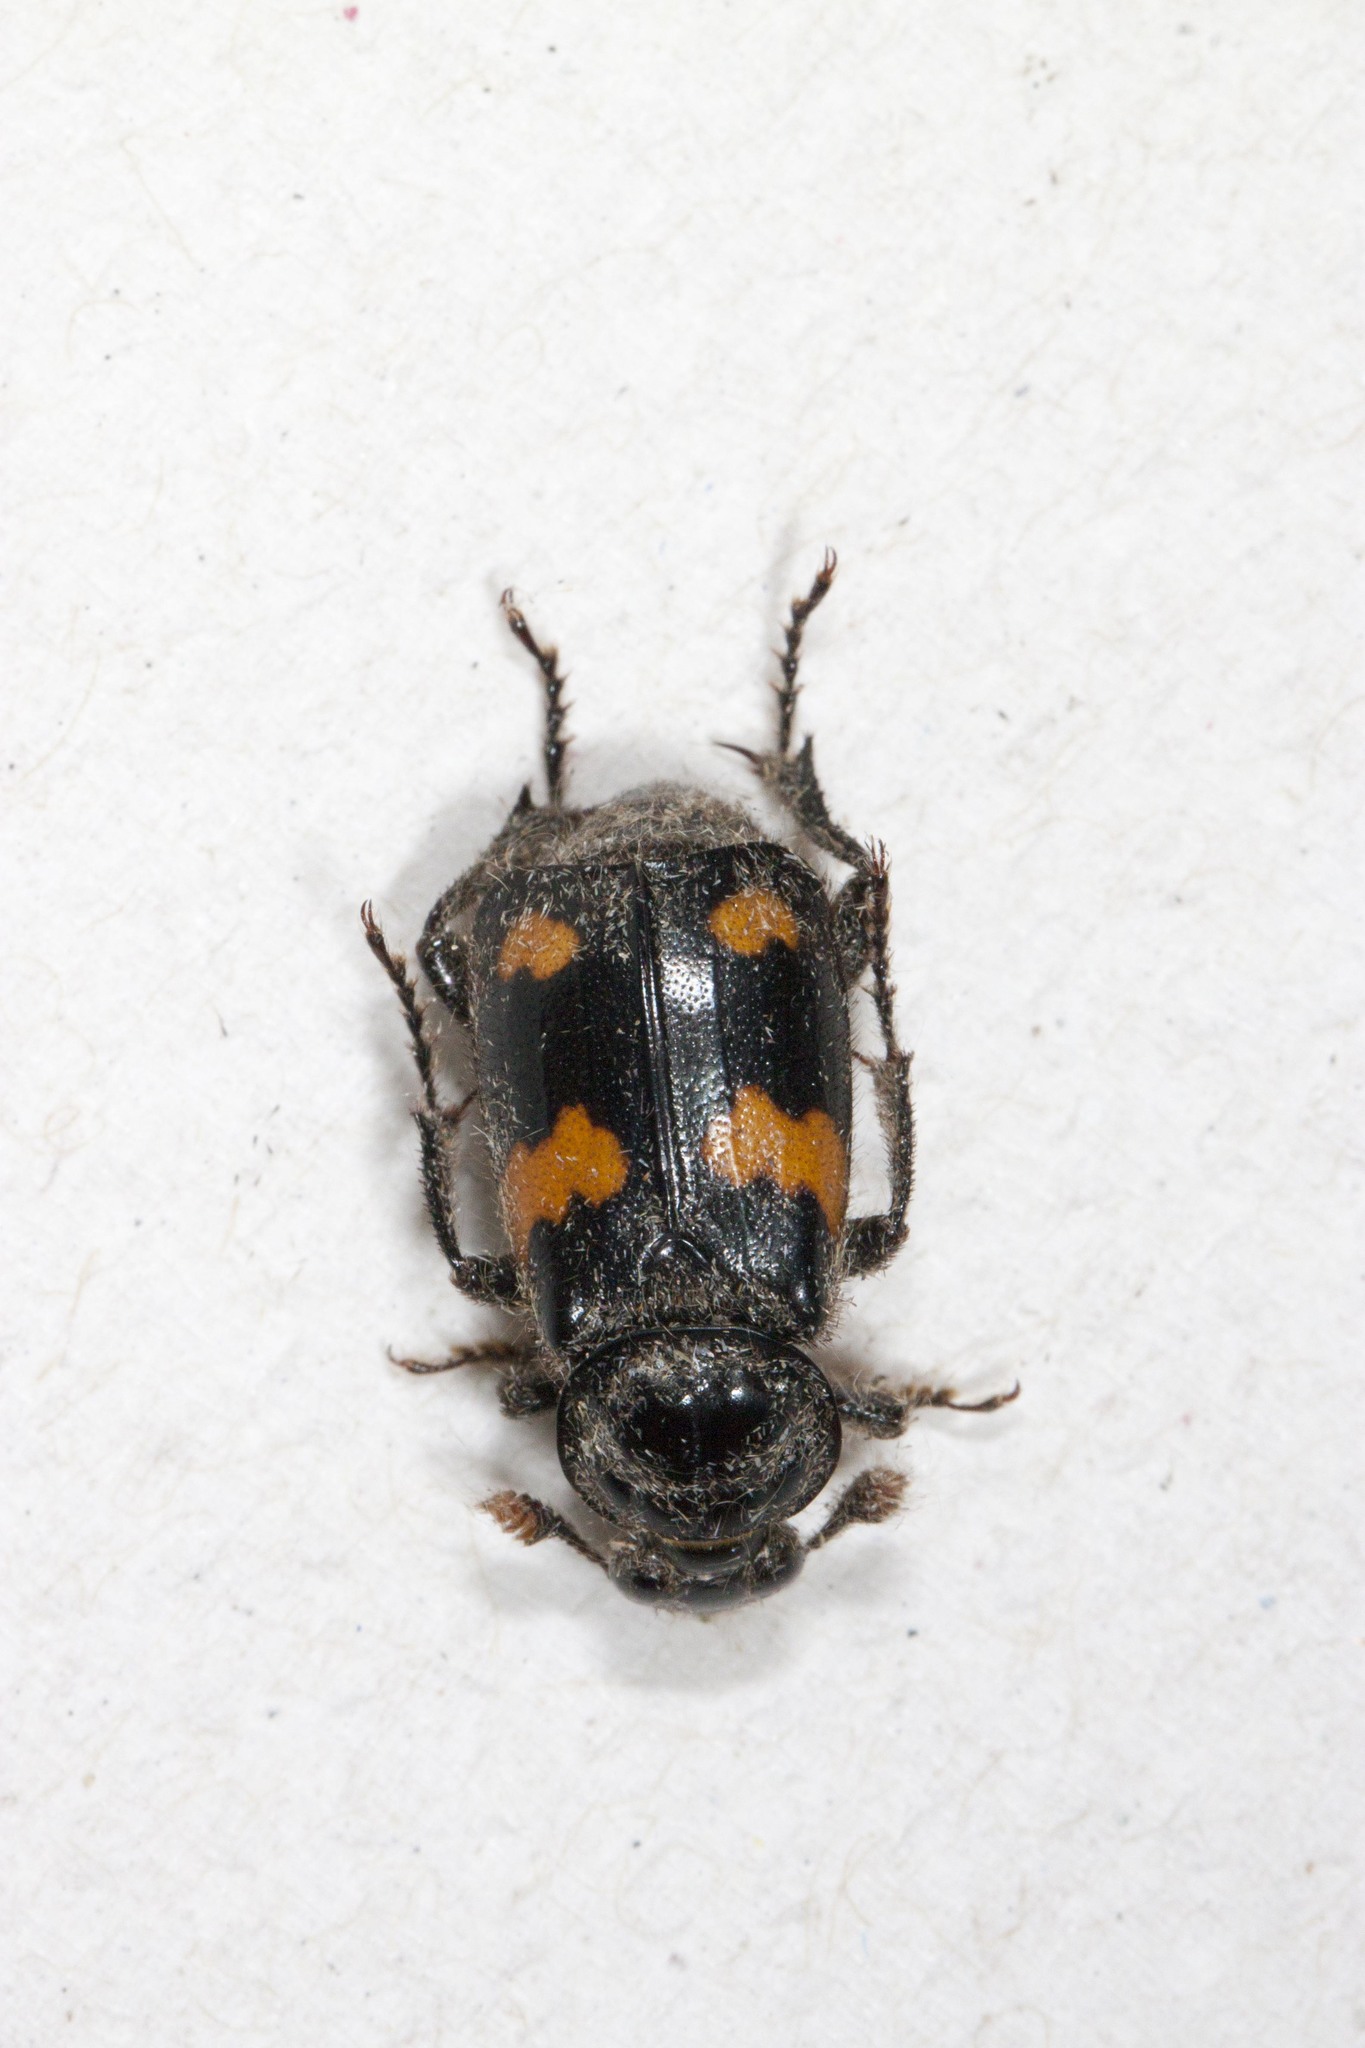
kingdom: Animalia
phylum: Arthropoda
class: Insecta
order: Coleoptera
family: Staphylinidae
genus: Nicrophorus
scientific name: Nicrophorus orbicollis
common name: Roundneck sexton beetle
